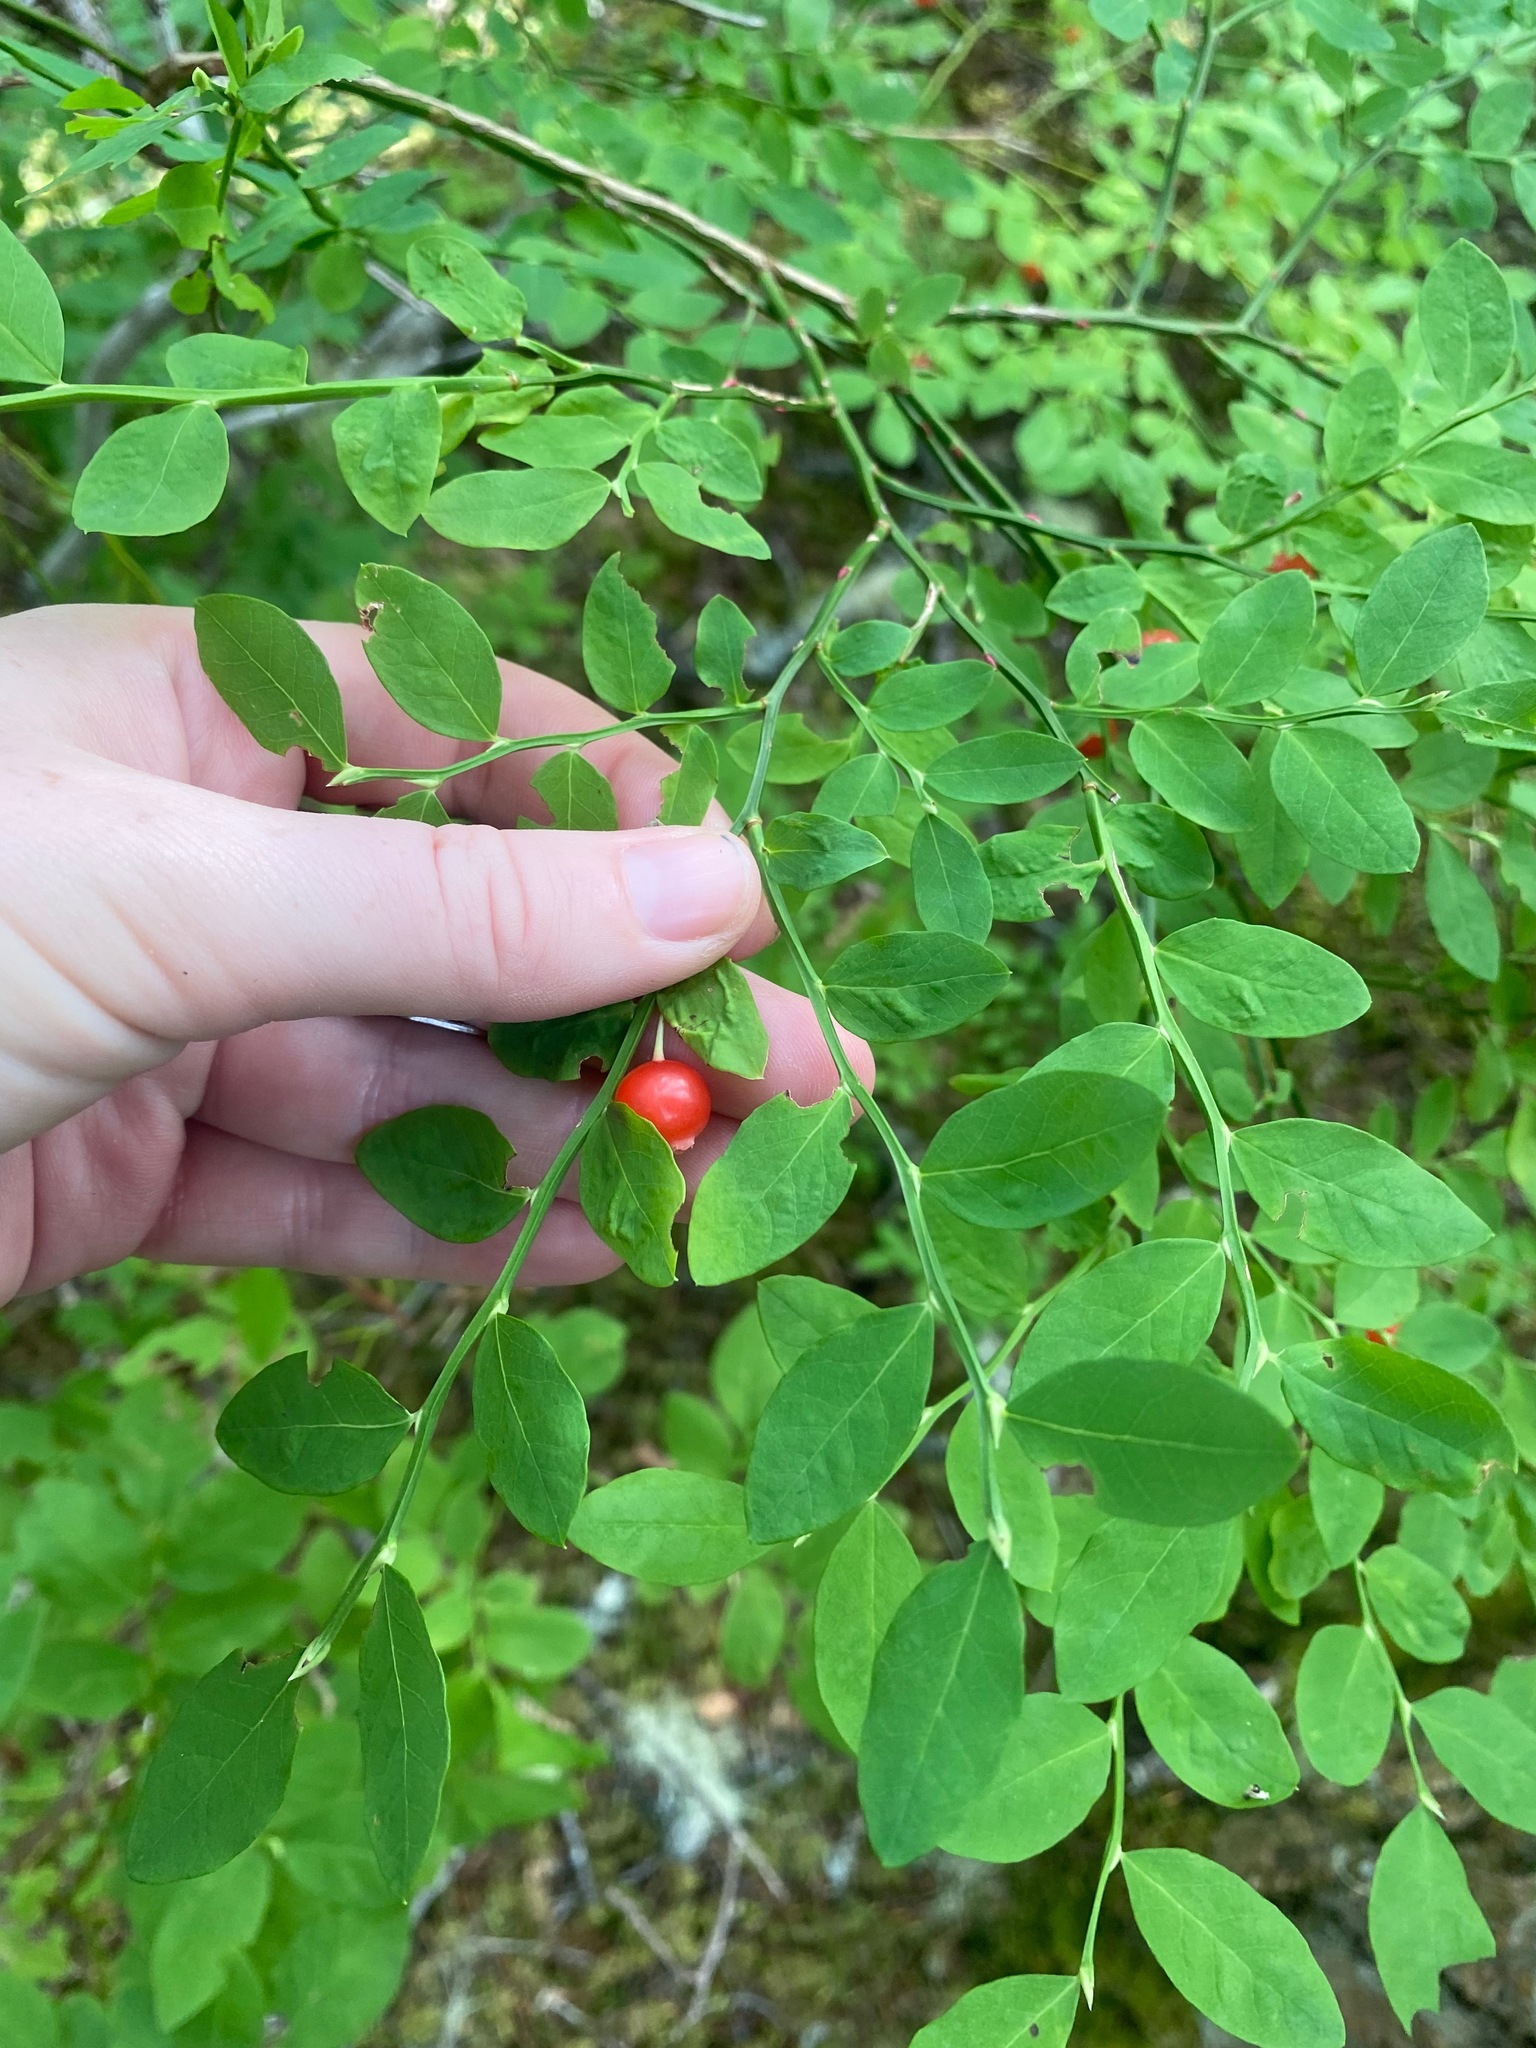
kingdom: Plantae
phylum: Tracheophyta
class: Magnoliopsida
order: Ericales
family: Ericaceae
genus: Vaccinium
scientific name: Vaccinium parvifolium
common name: Red-huckleberry
